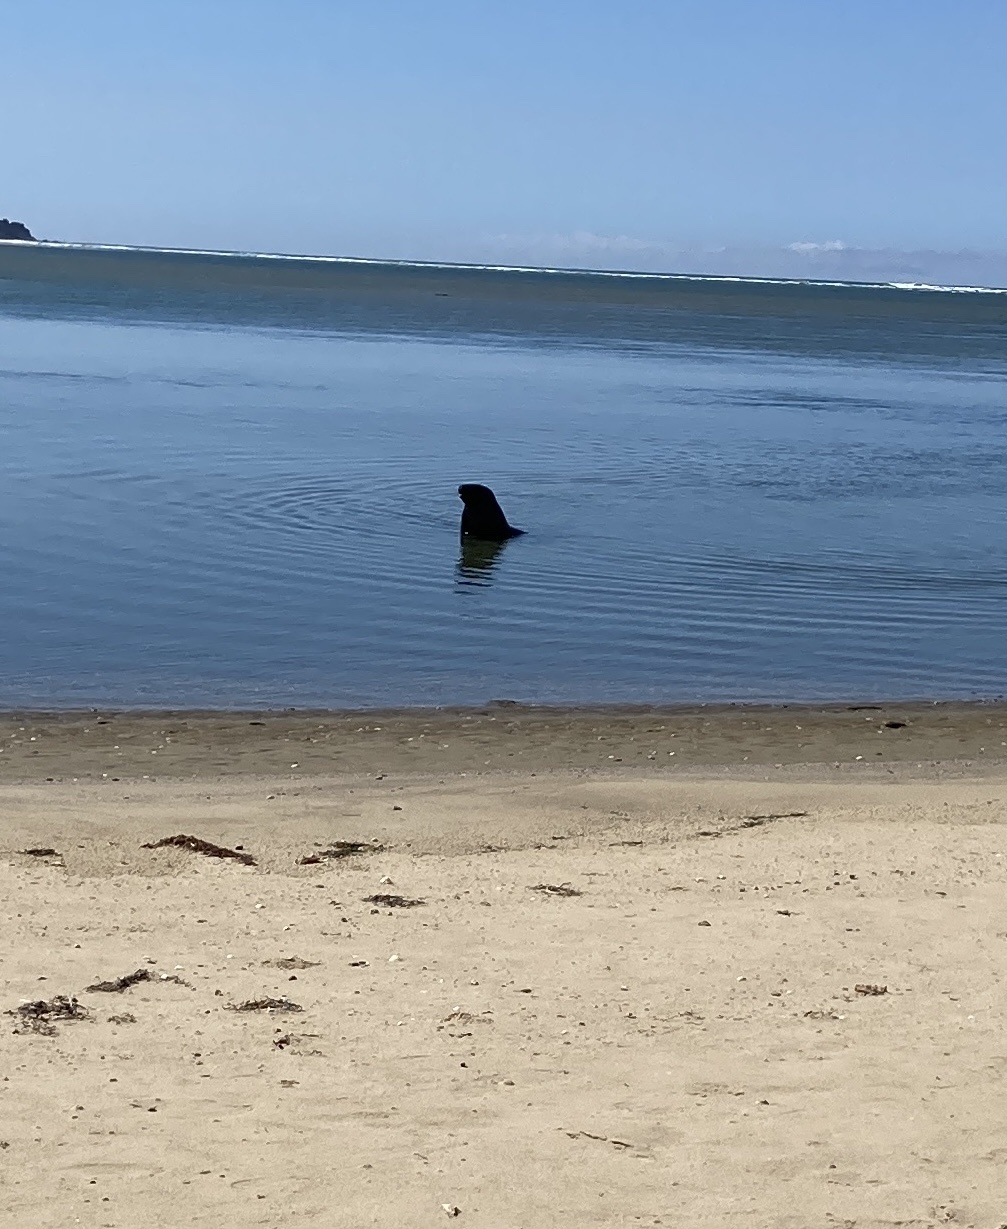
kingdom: Animalia
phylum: Chordata
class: Mammalia
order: Carnivora
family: Otariidae
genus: Phocarctos
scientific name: Phocarctos hookeri
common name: New zealand sea lion
